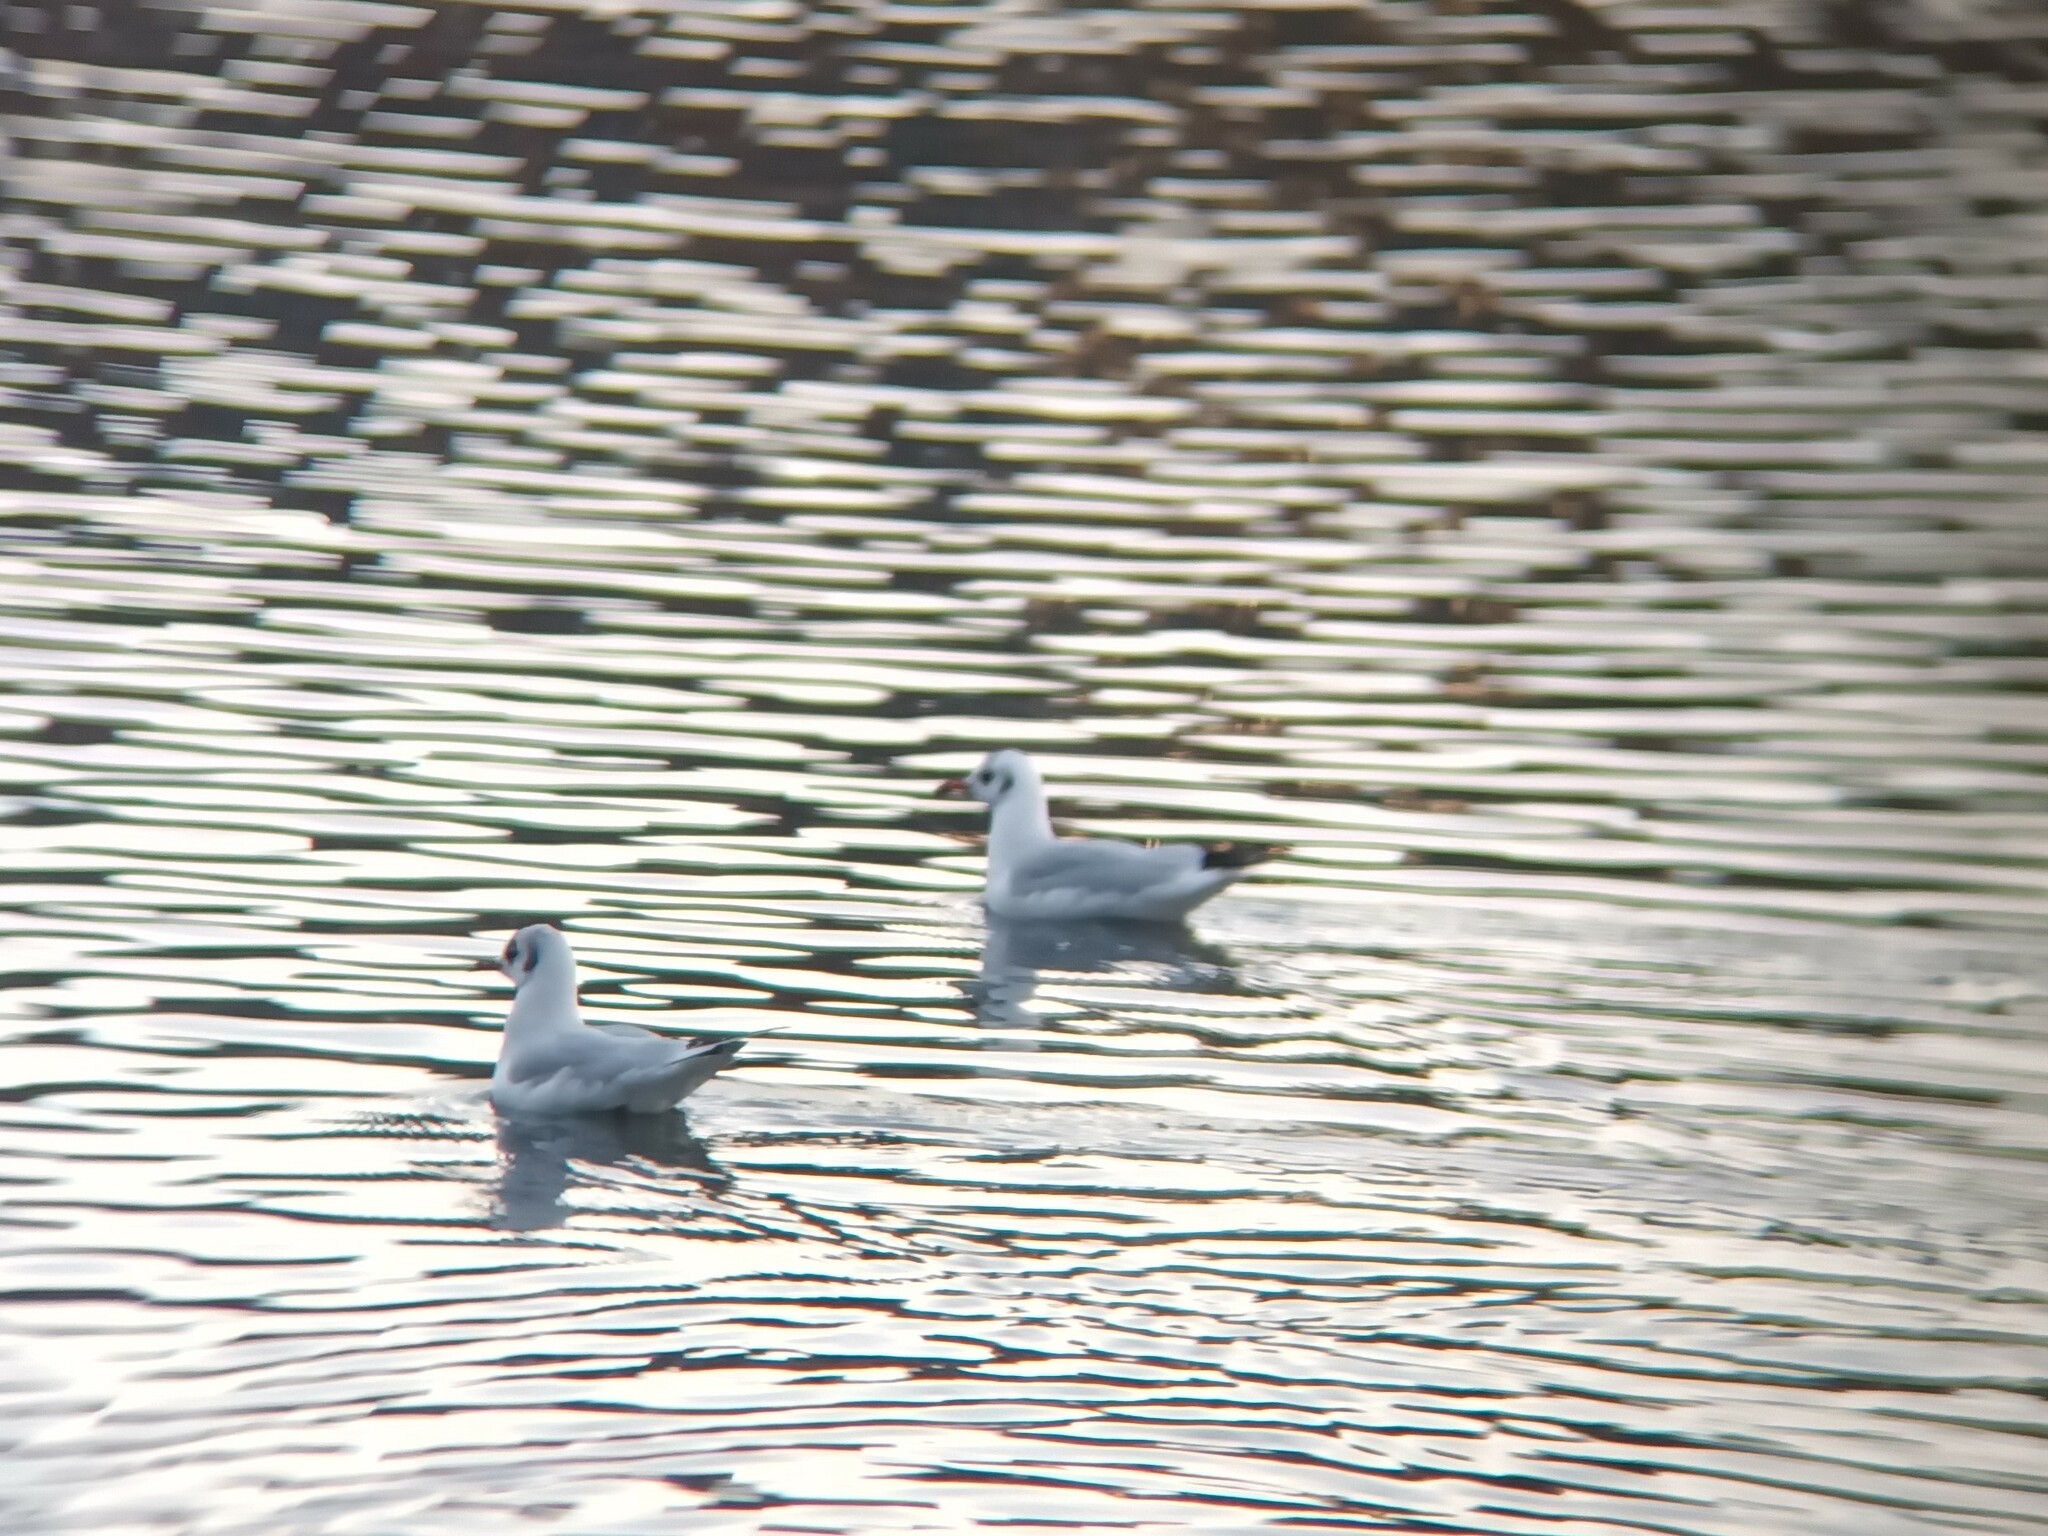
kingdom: Animalia
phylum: Chordata
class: Aves
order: Charadriiformes
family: Laridae
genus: Chroicocephalus
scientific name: Chroicocephalus ridibundus
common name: Black-headed gull
